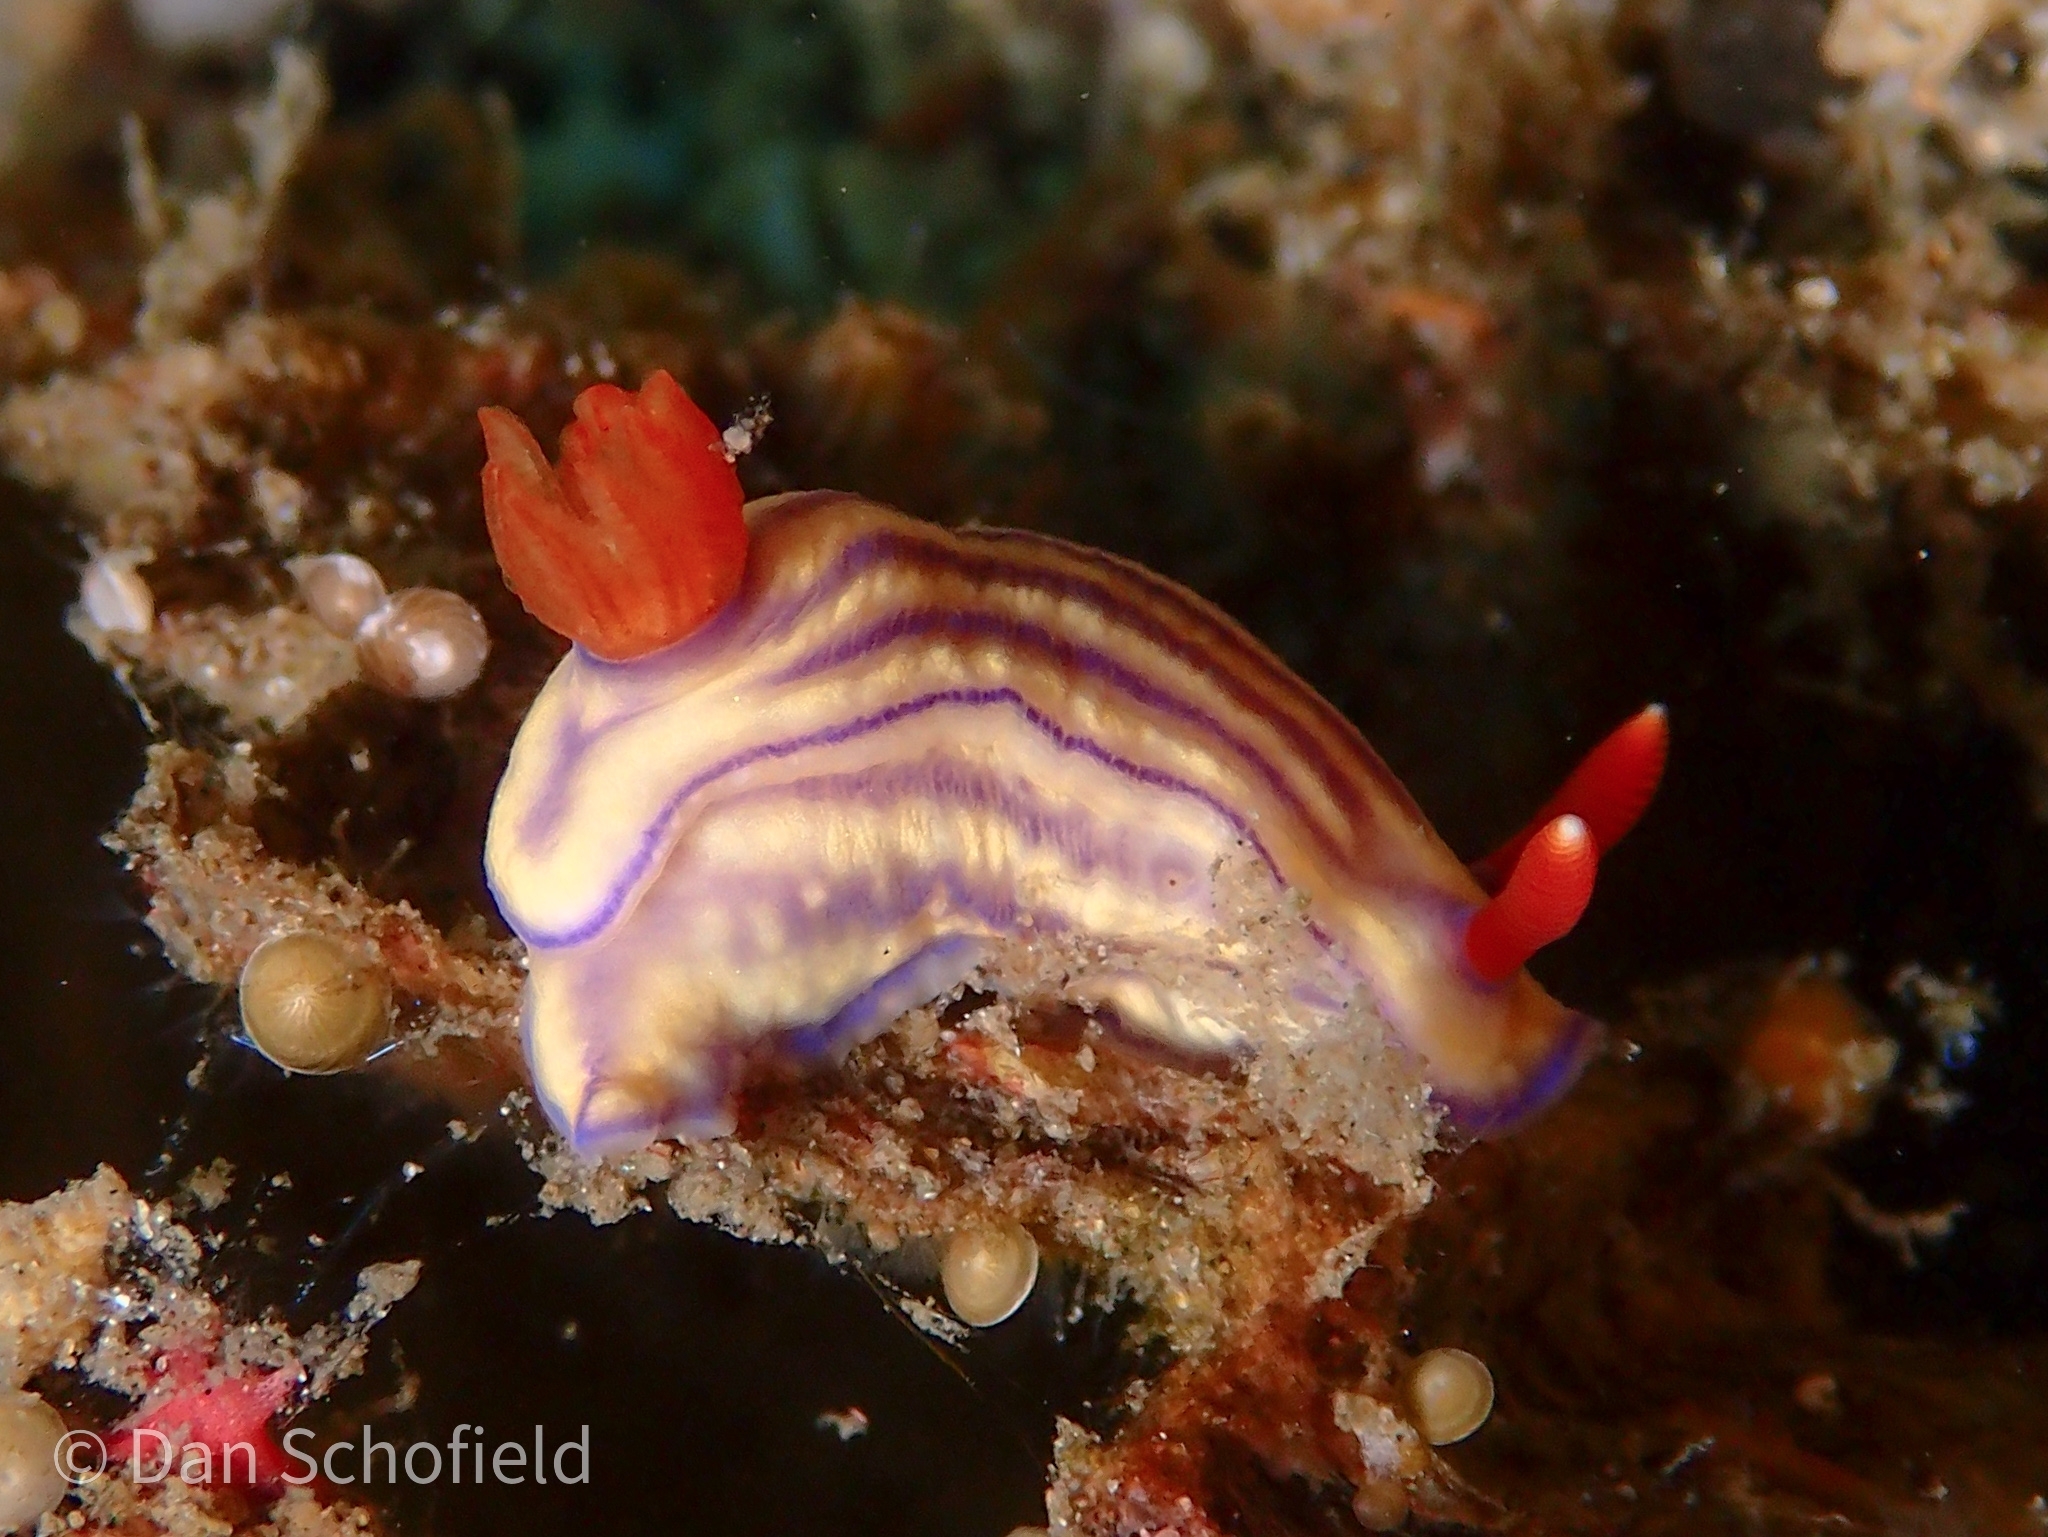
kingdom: Animalia
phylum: Mollusca
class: Gastropoda
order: Nudibranchia
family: Chromodorididae
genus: Hypselodoris
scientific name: Hypselodoris whitei
